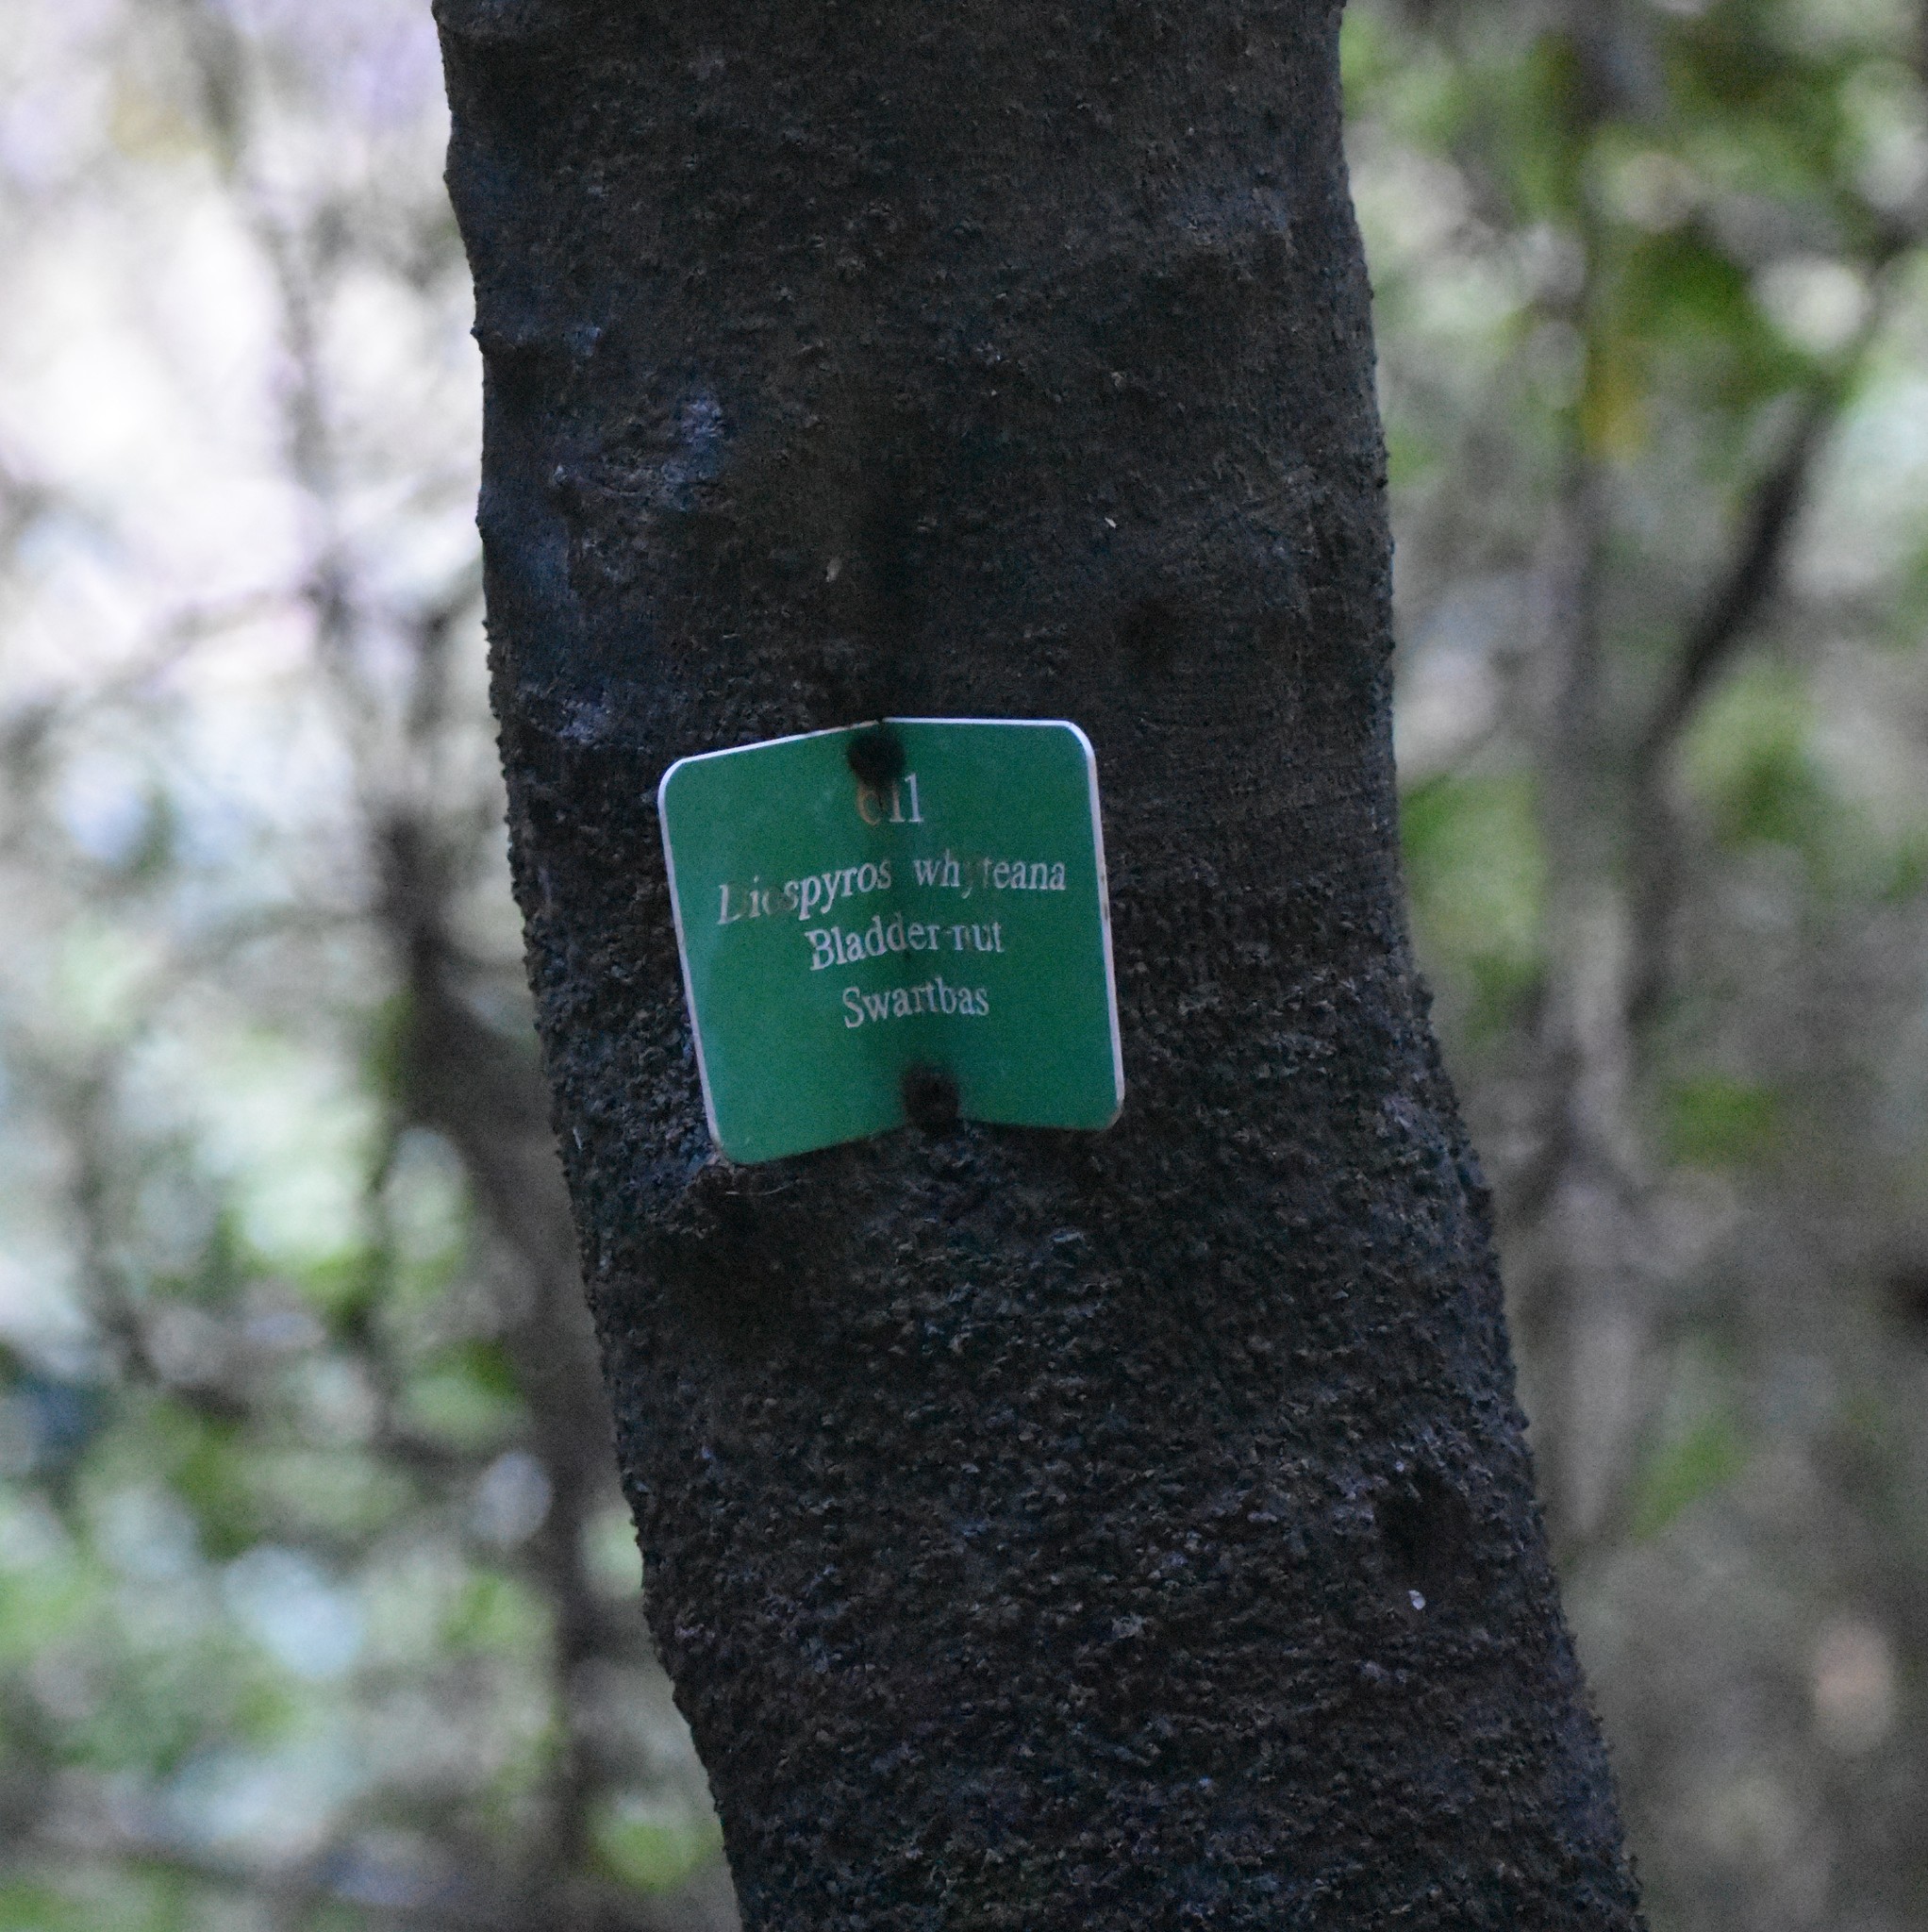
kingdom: Plantae
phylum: Tracheophyta
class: Magnoliopsida
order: Ericales
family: Ebenaceae
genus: Diospyros
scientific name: Diospyros whyteana
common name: Bladder-nut
